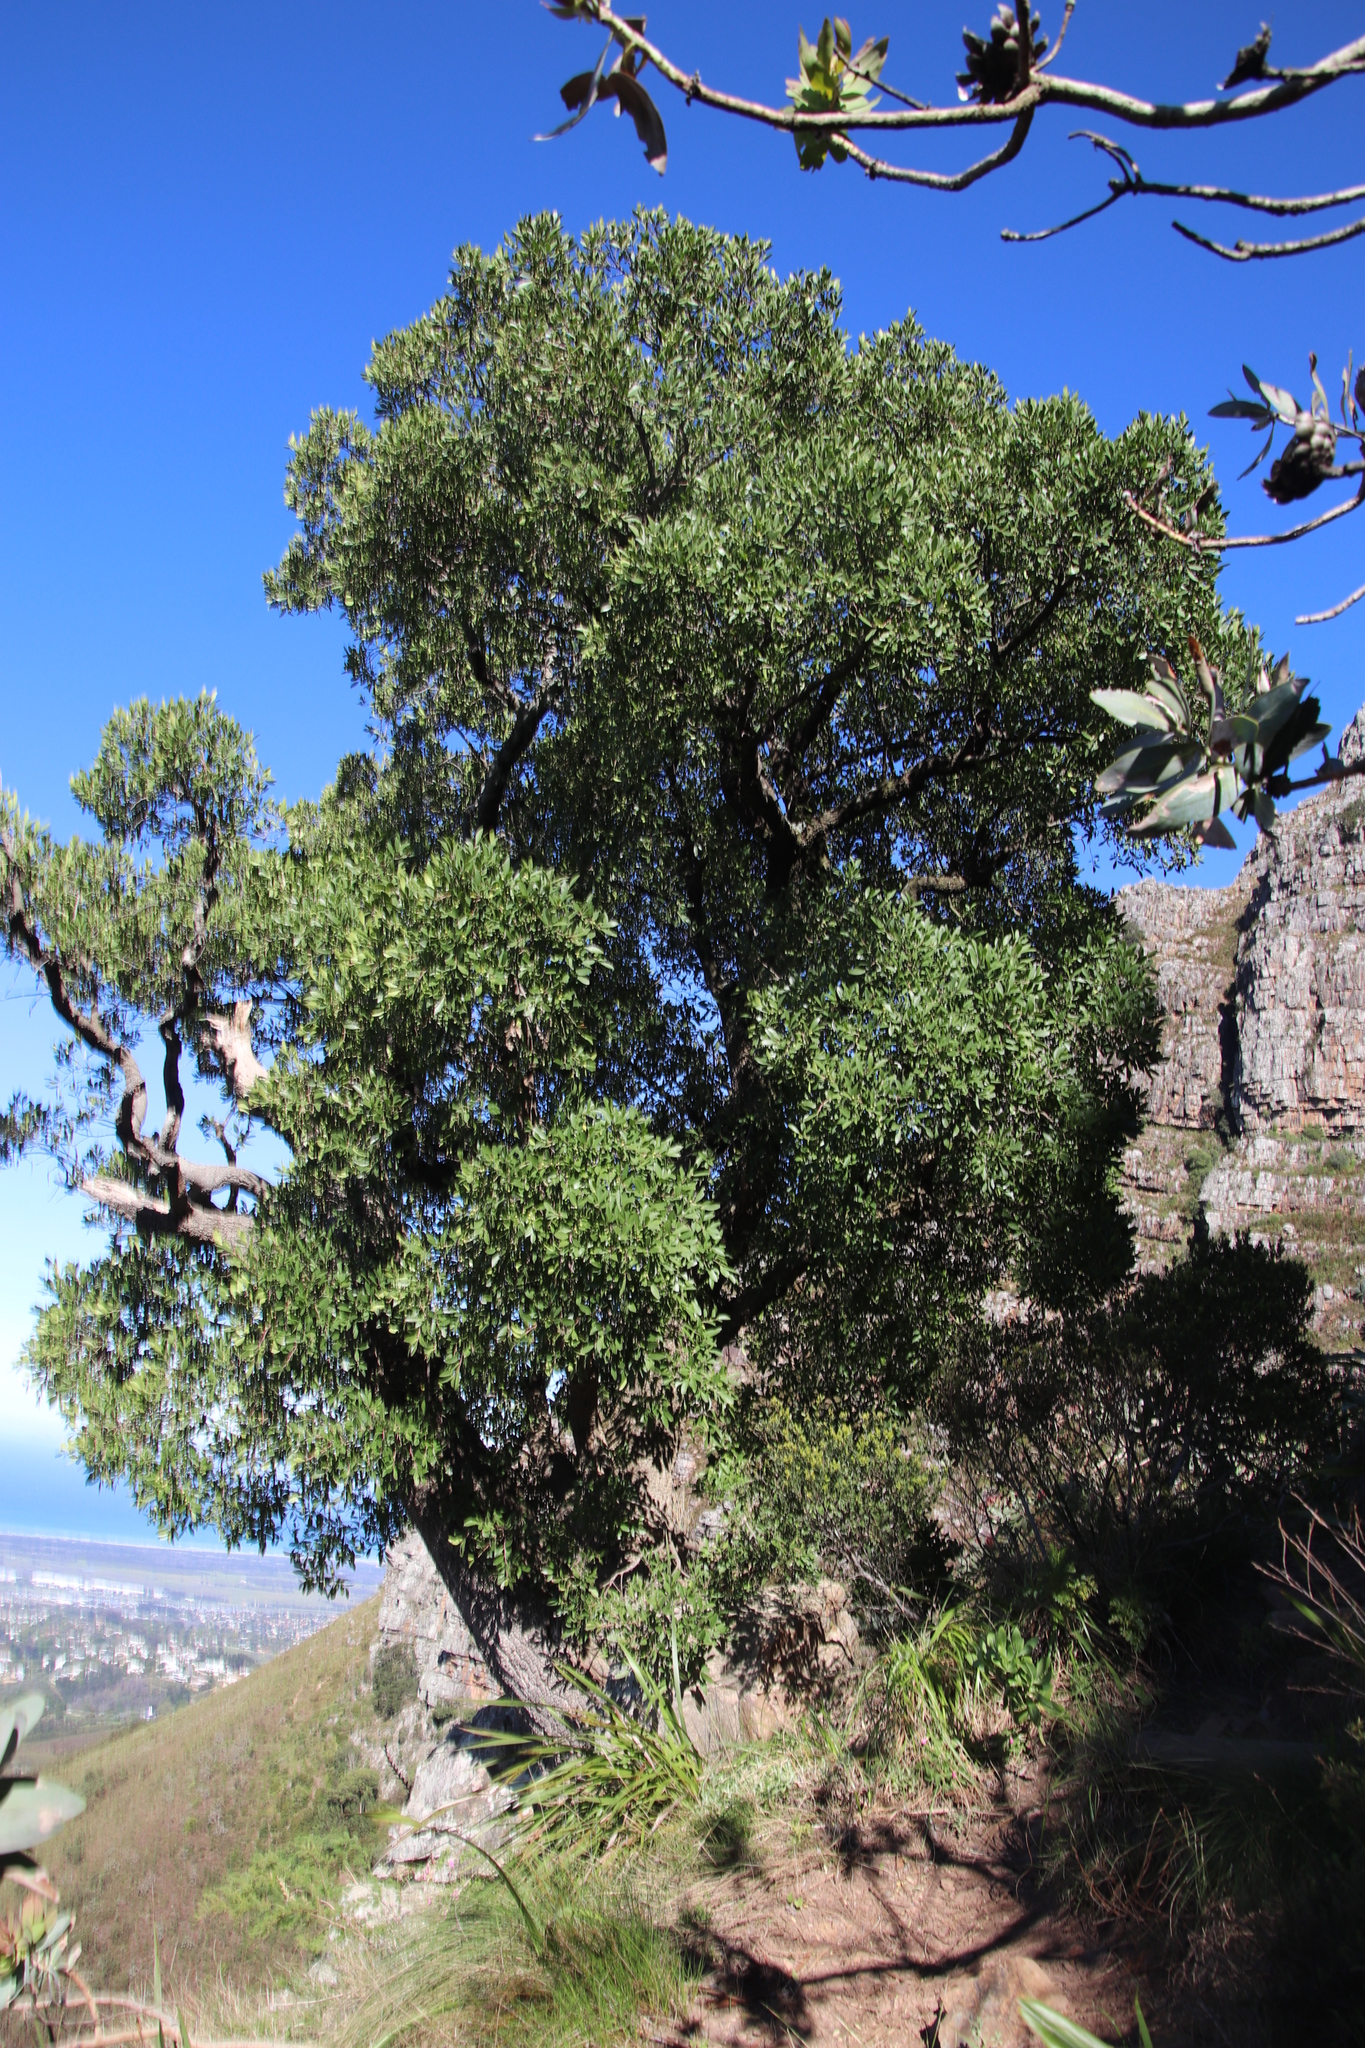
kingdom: Plantae
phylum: Tracheophyta
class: Magnoliopsida
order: Celastrales
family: Celastraceae
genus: Gymnosporia
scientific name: Gymnosporia laurina
